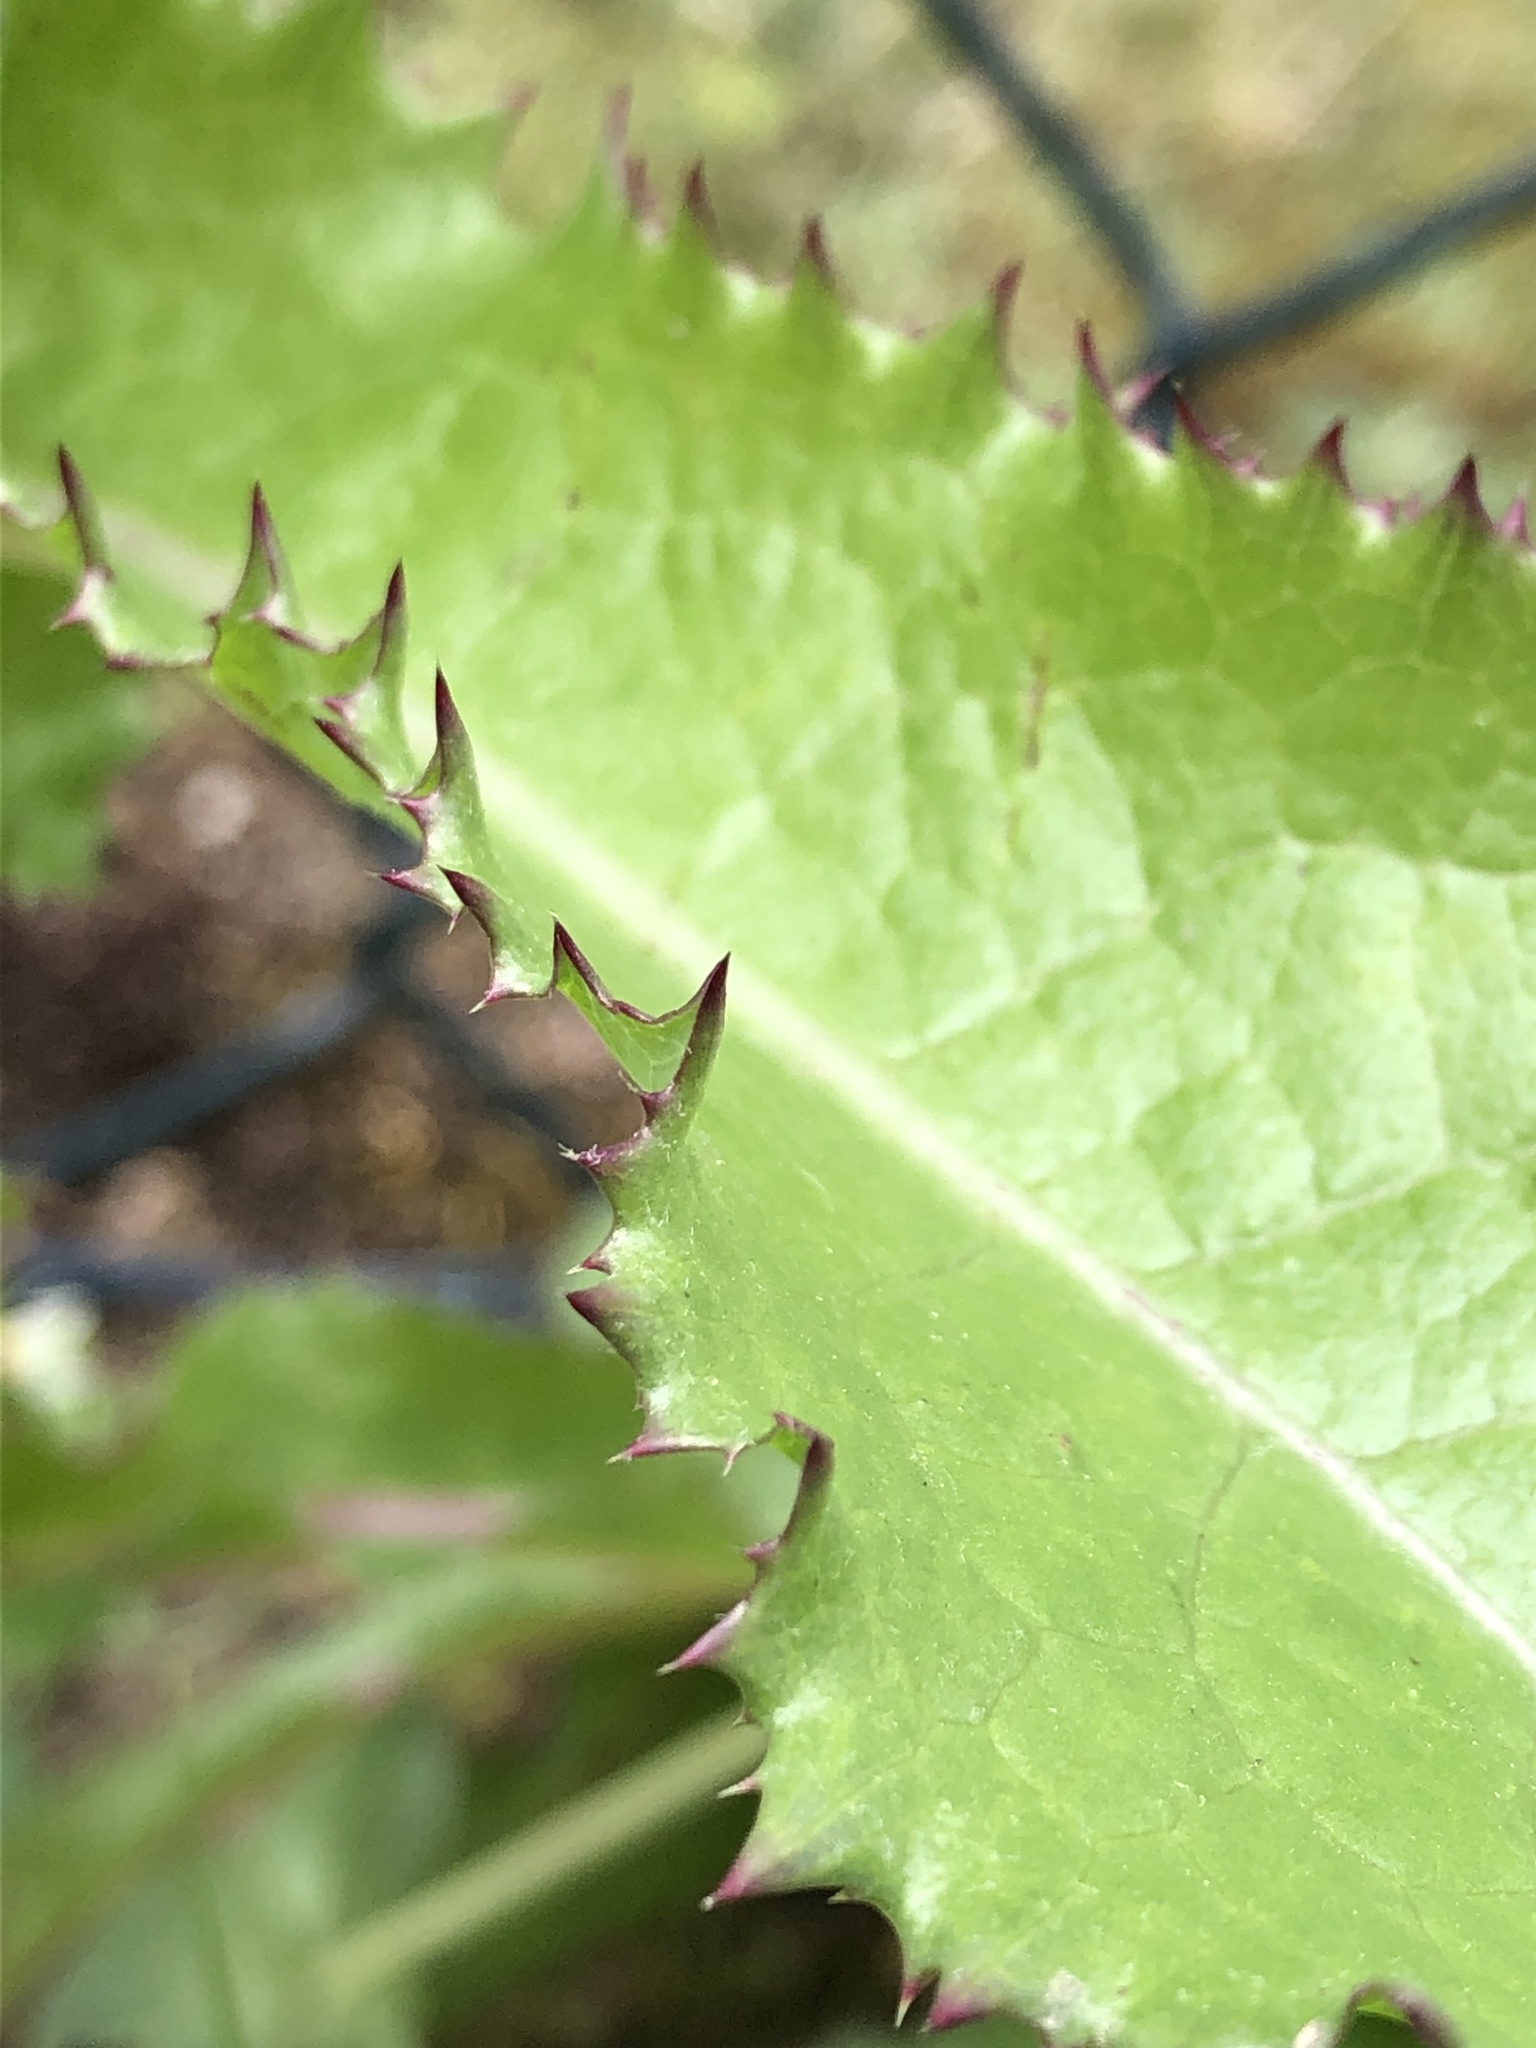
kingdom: Plantae
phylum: Tracheophyta
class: Magnoliopsida
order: Asterales
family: Asteraceae
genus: Sonchus
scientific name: Sonchus asper
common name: Prickly sow-thistle
